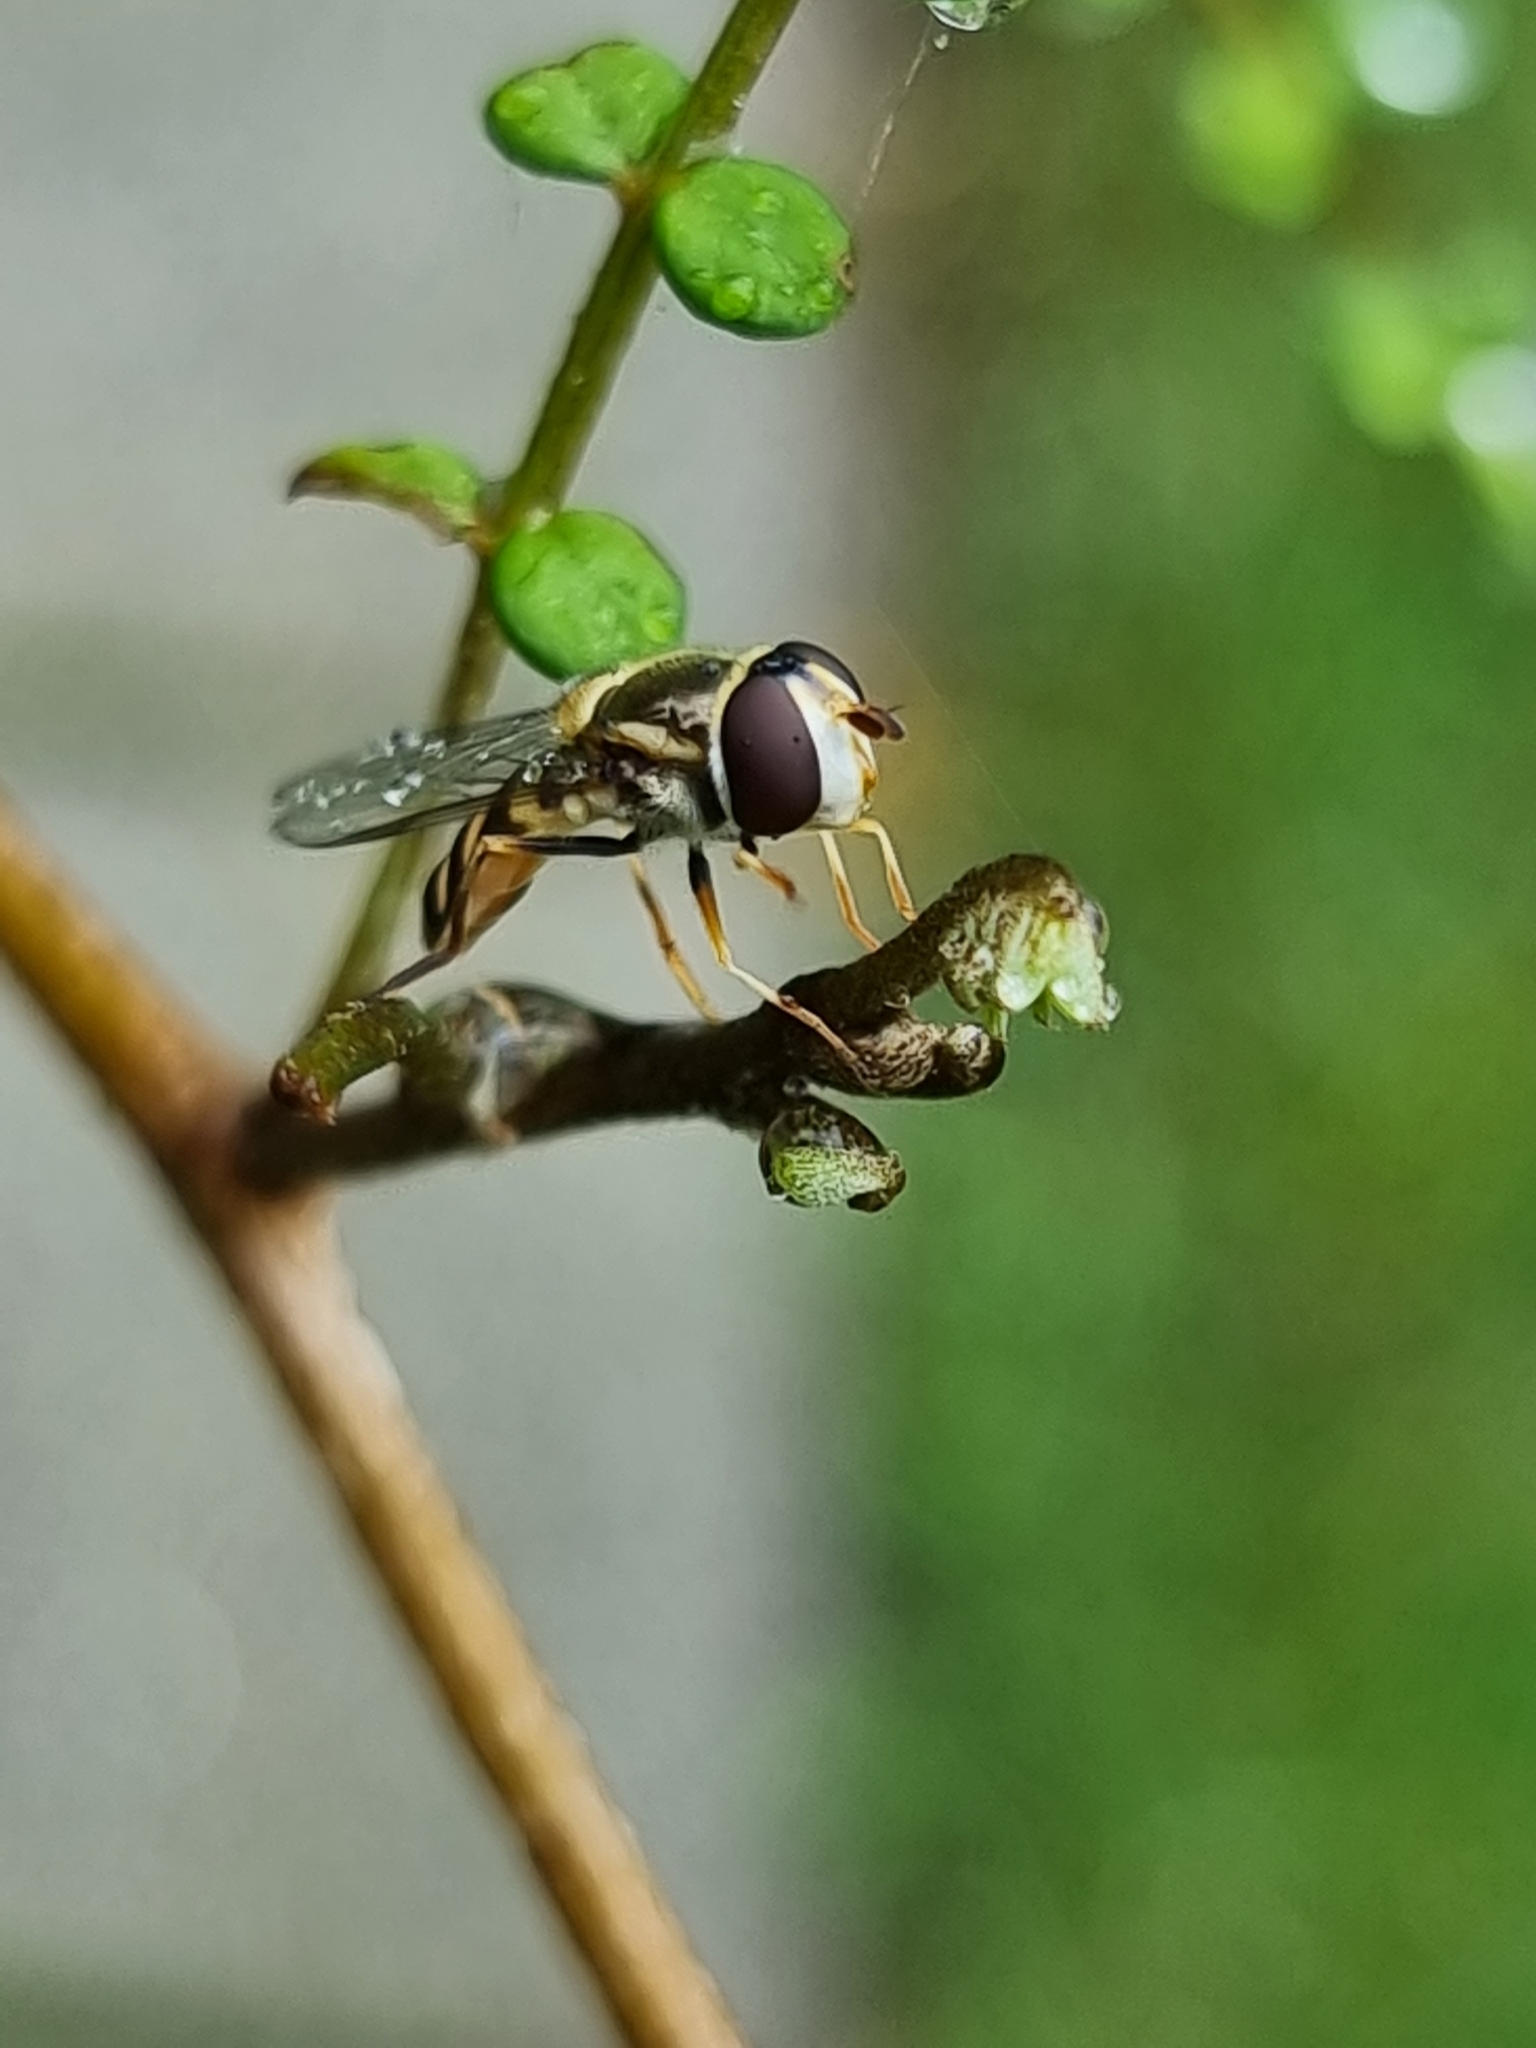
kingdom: Animalia
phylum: Arthropoda
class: Insecta
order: Diptera
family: Syrphidae
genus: Simosyrphus
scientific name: Simosyrphus grandicornis
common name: Hoverfly
